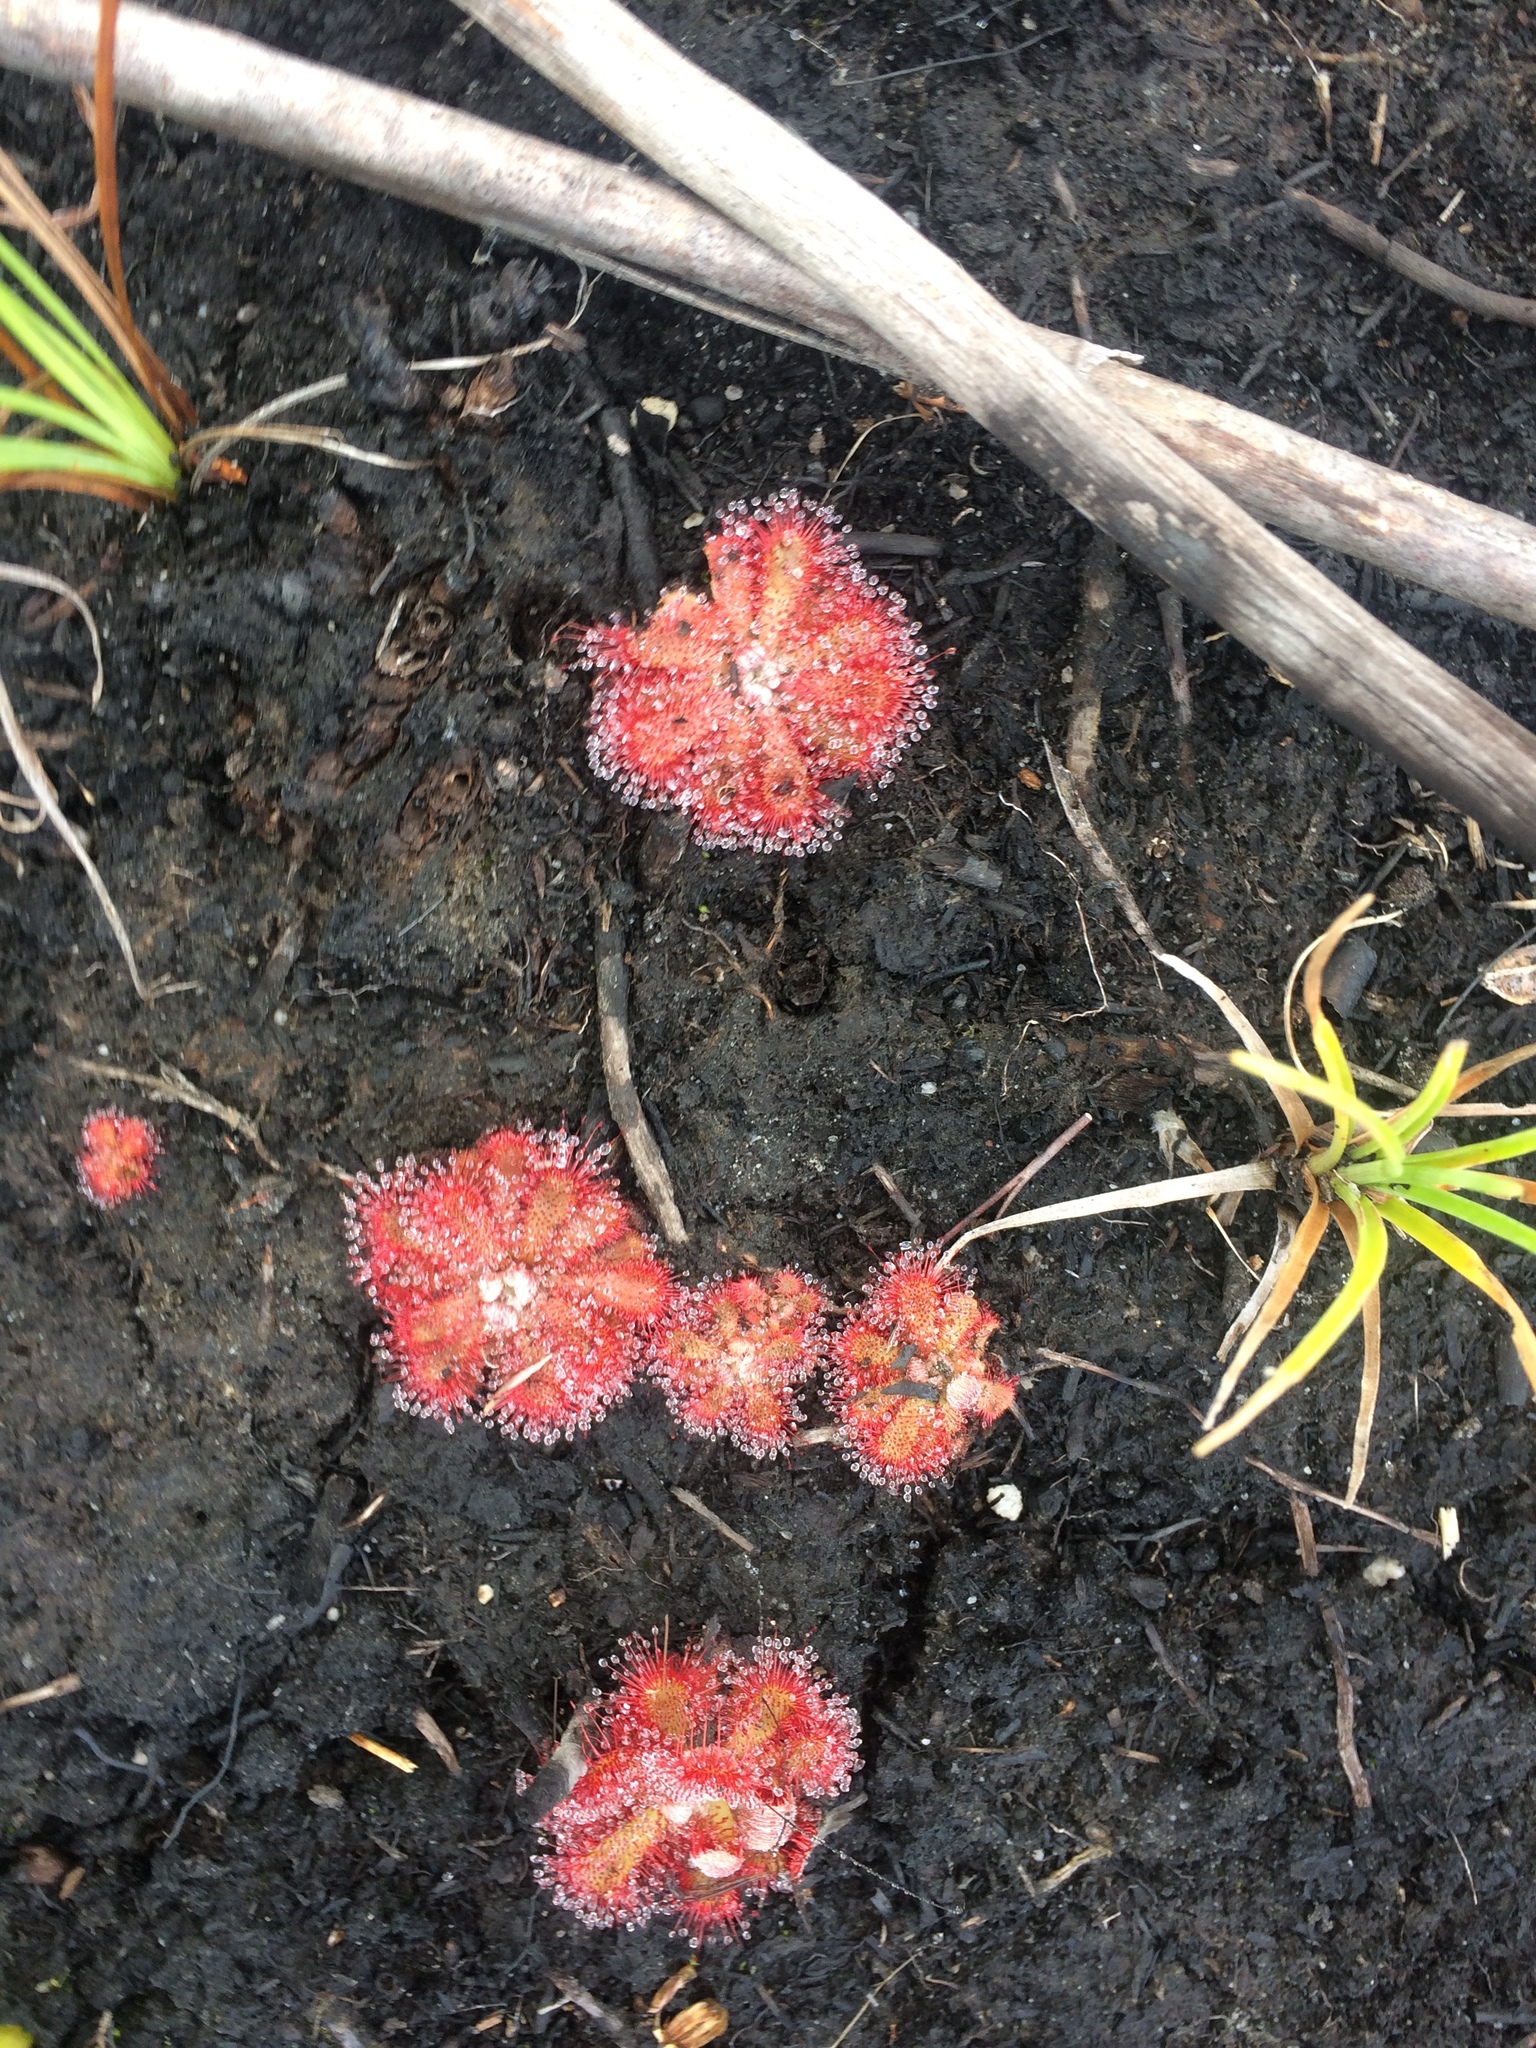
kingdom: Plantae
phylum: Tracheophyta
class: Magnoliopsida
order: Caryophyllales
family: Droseraceae
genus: Drosera
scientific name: Drosera aliciae
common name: Alice sundew
